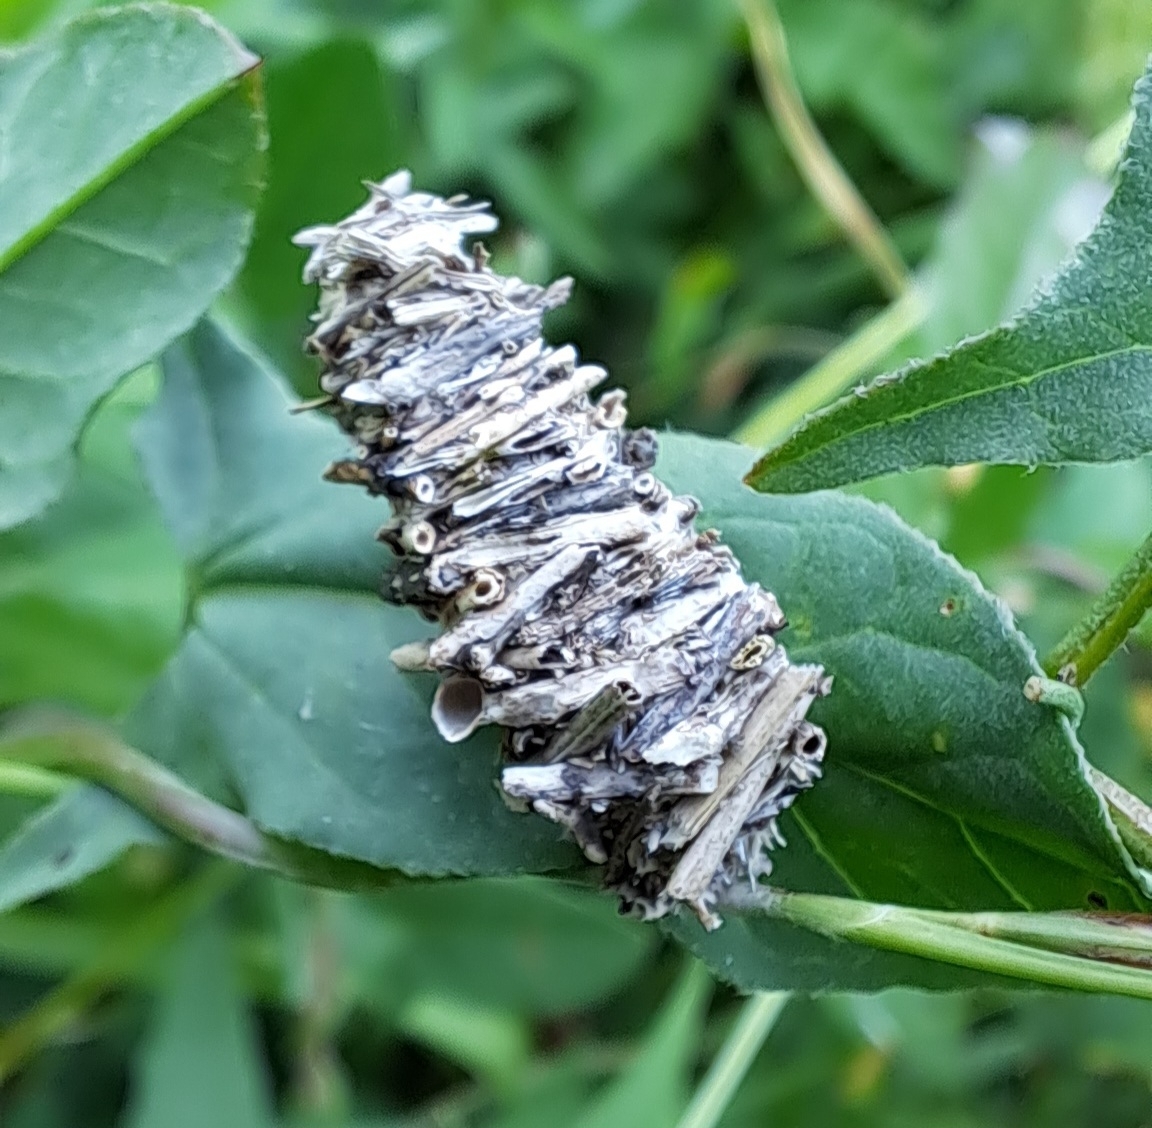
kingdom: Animalia
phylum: Arthropoda
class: Insecta
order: Lepidoptera
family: Psychidae
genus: Megalophanes
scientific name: Megalophanes viciella
